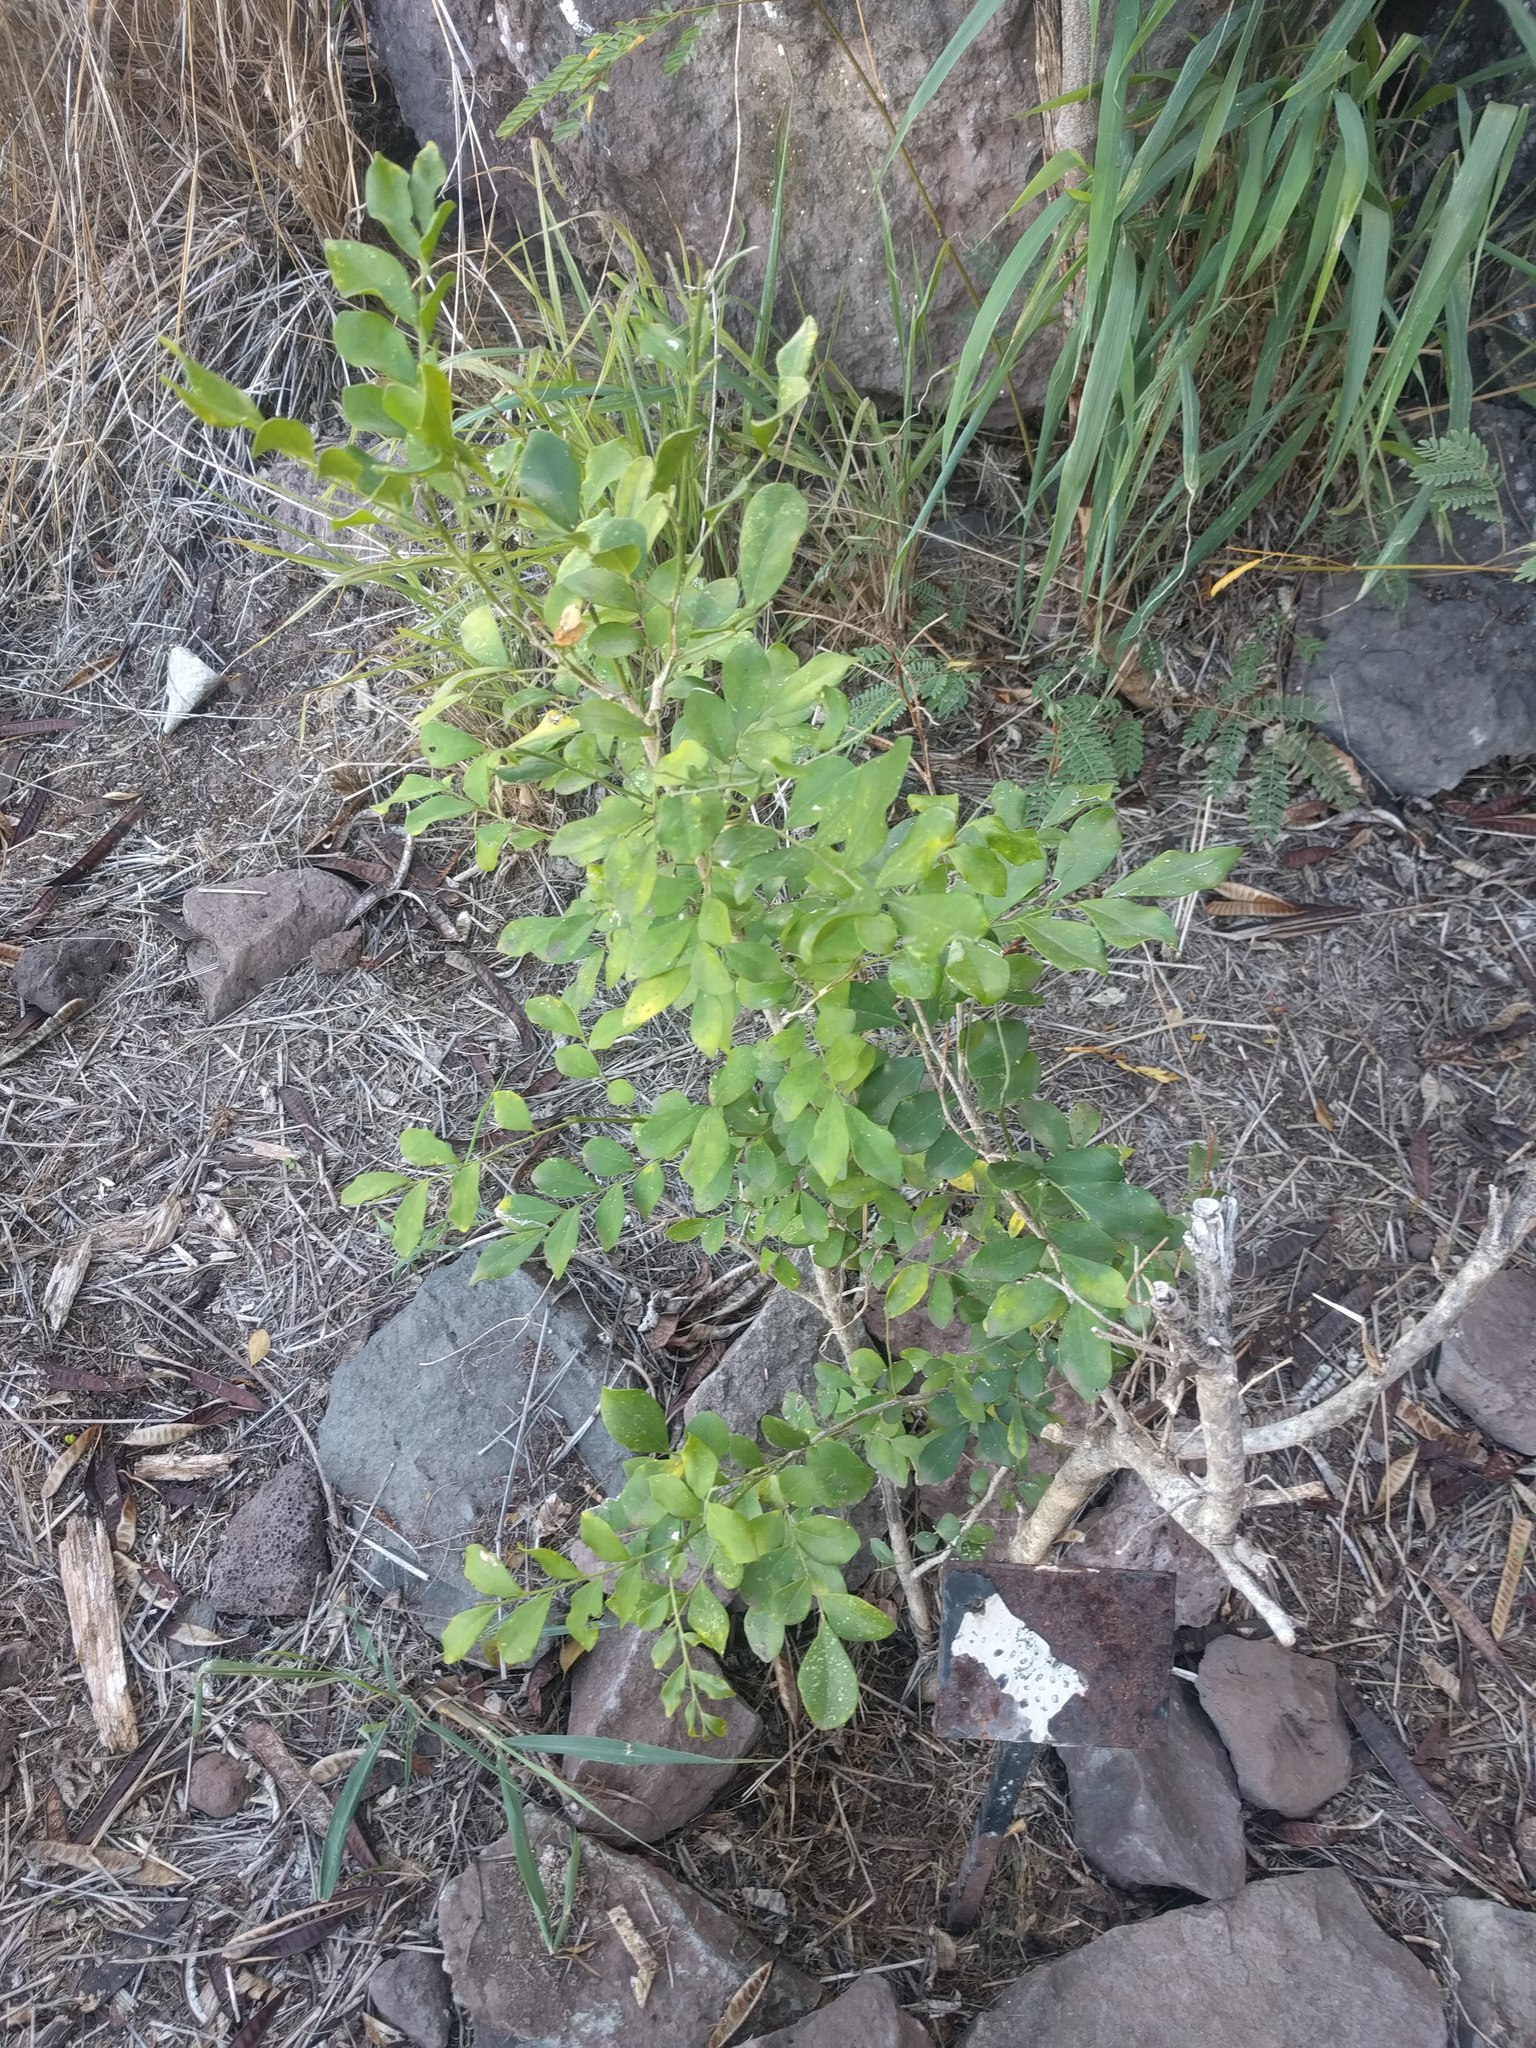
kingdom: Plantae
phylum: Tracheophyta
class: Magnoliopsida
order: Sapindales
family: Rutaceae
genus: Murraya
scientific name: Murraya paniculata
